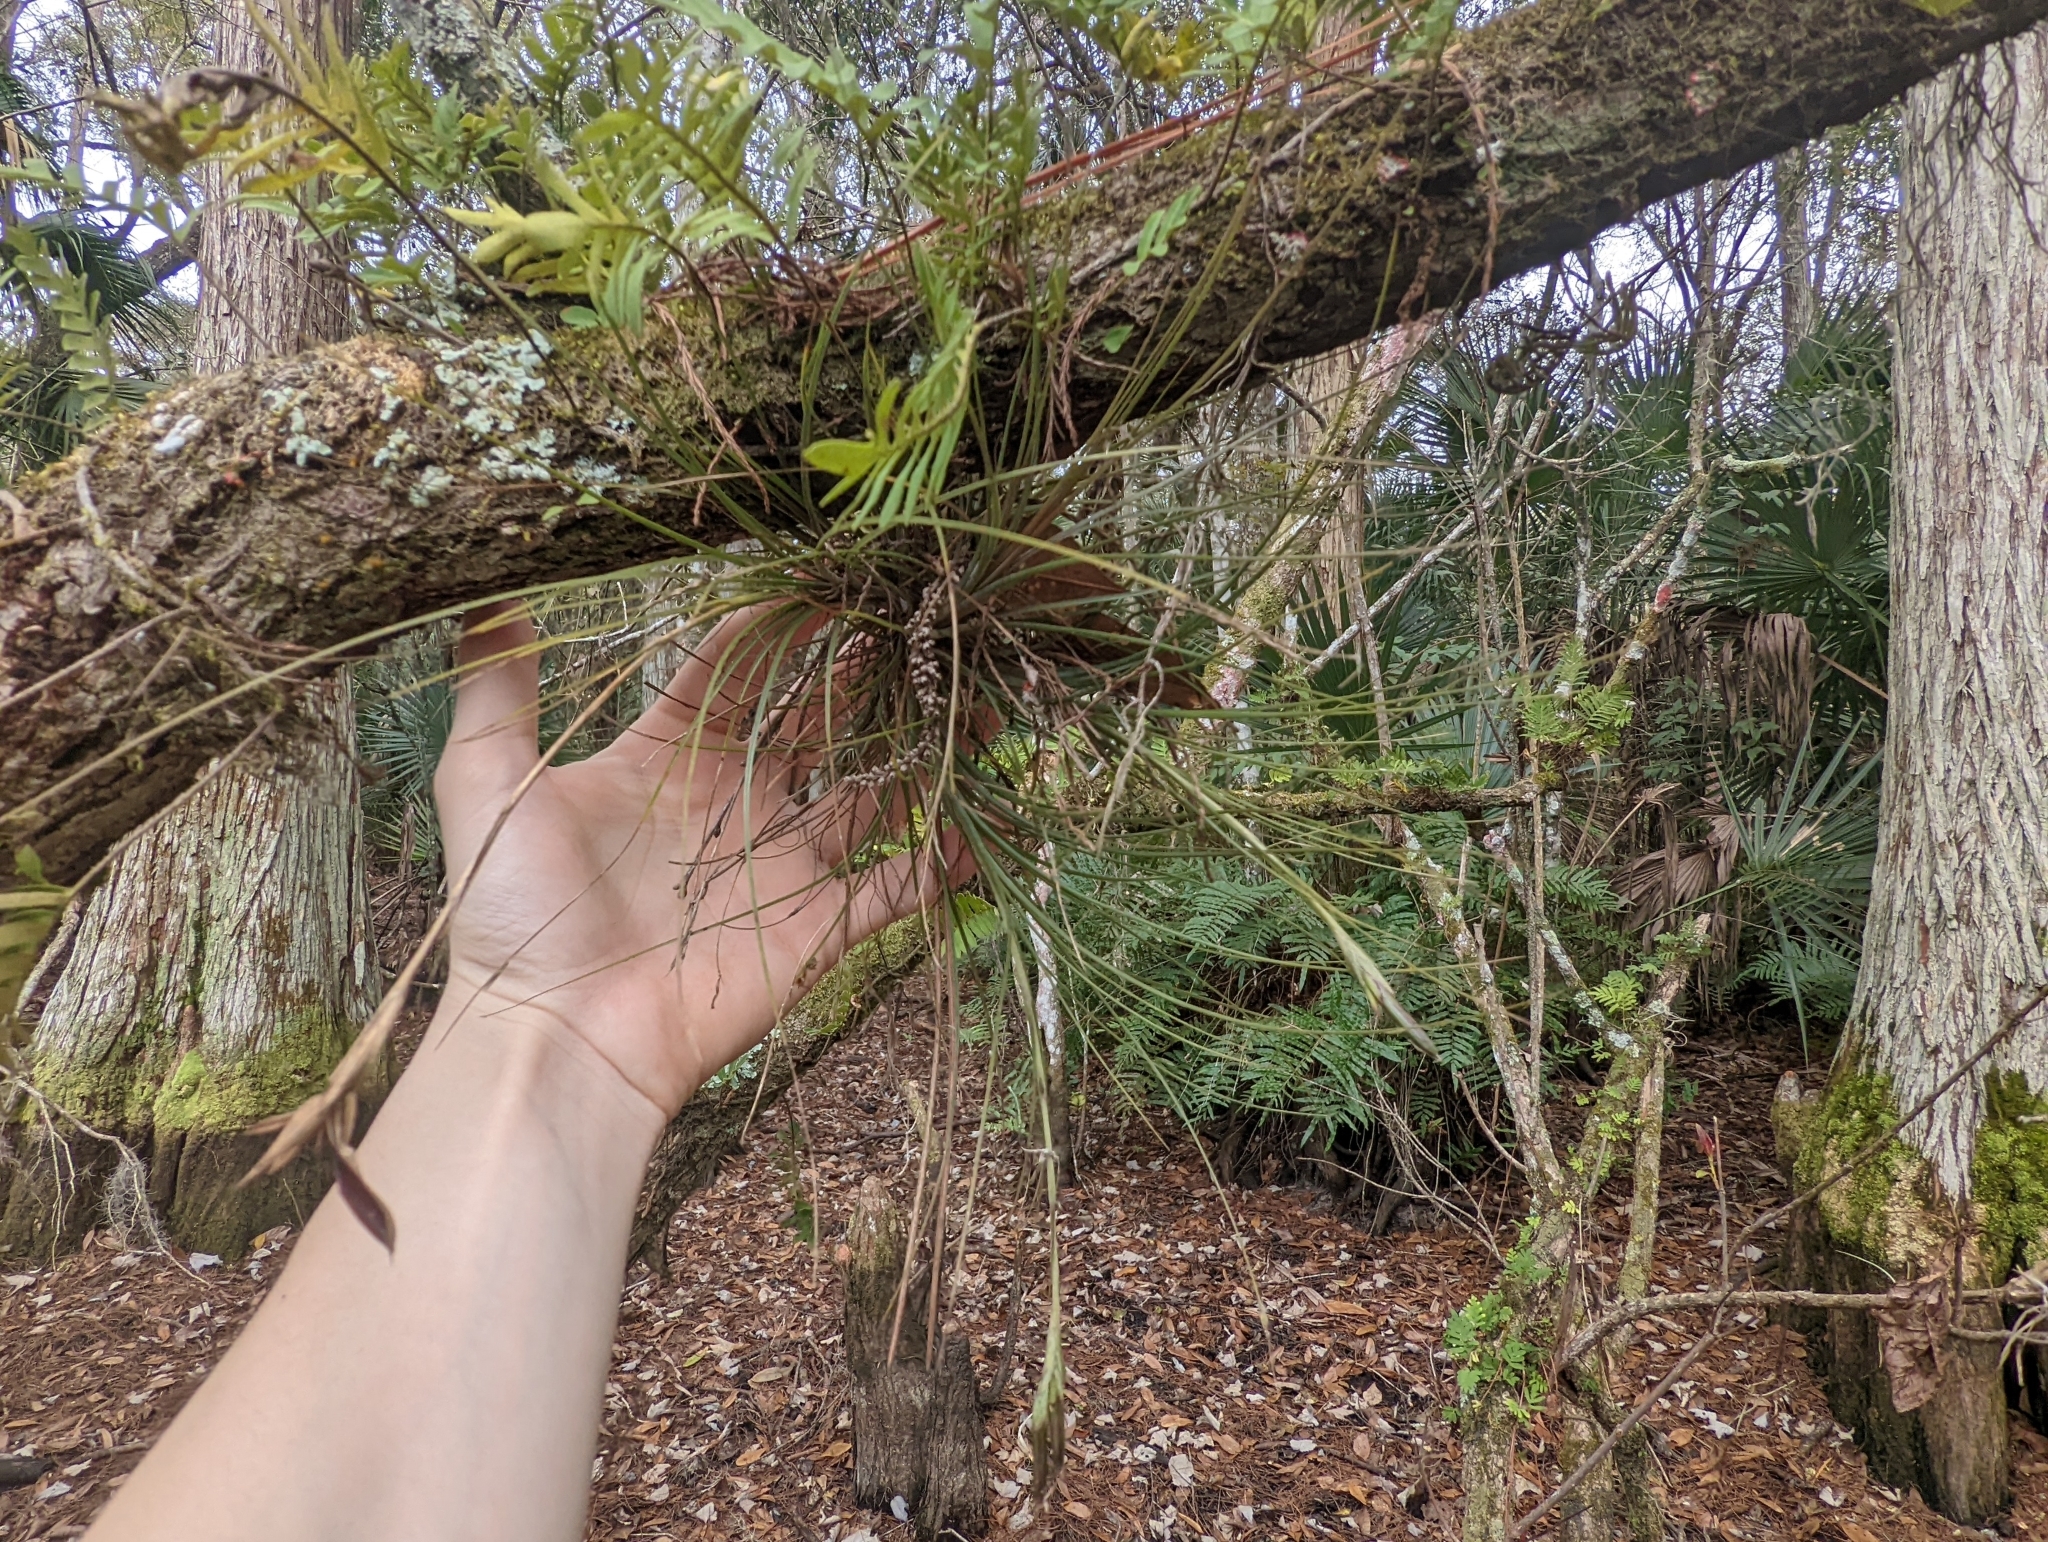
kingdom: Plantae
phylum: Tracheophyta
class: Liliopsida
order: Poales
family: Bromeliaceae
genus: Tillandsia
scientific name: Tillandsia setacea
